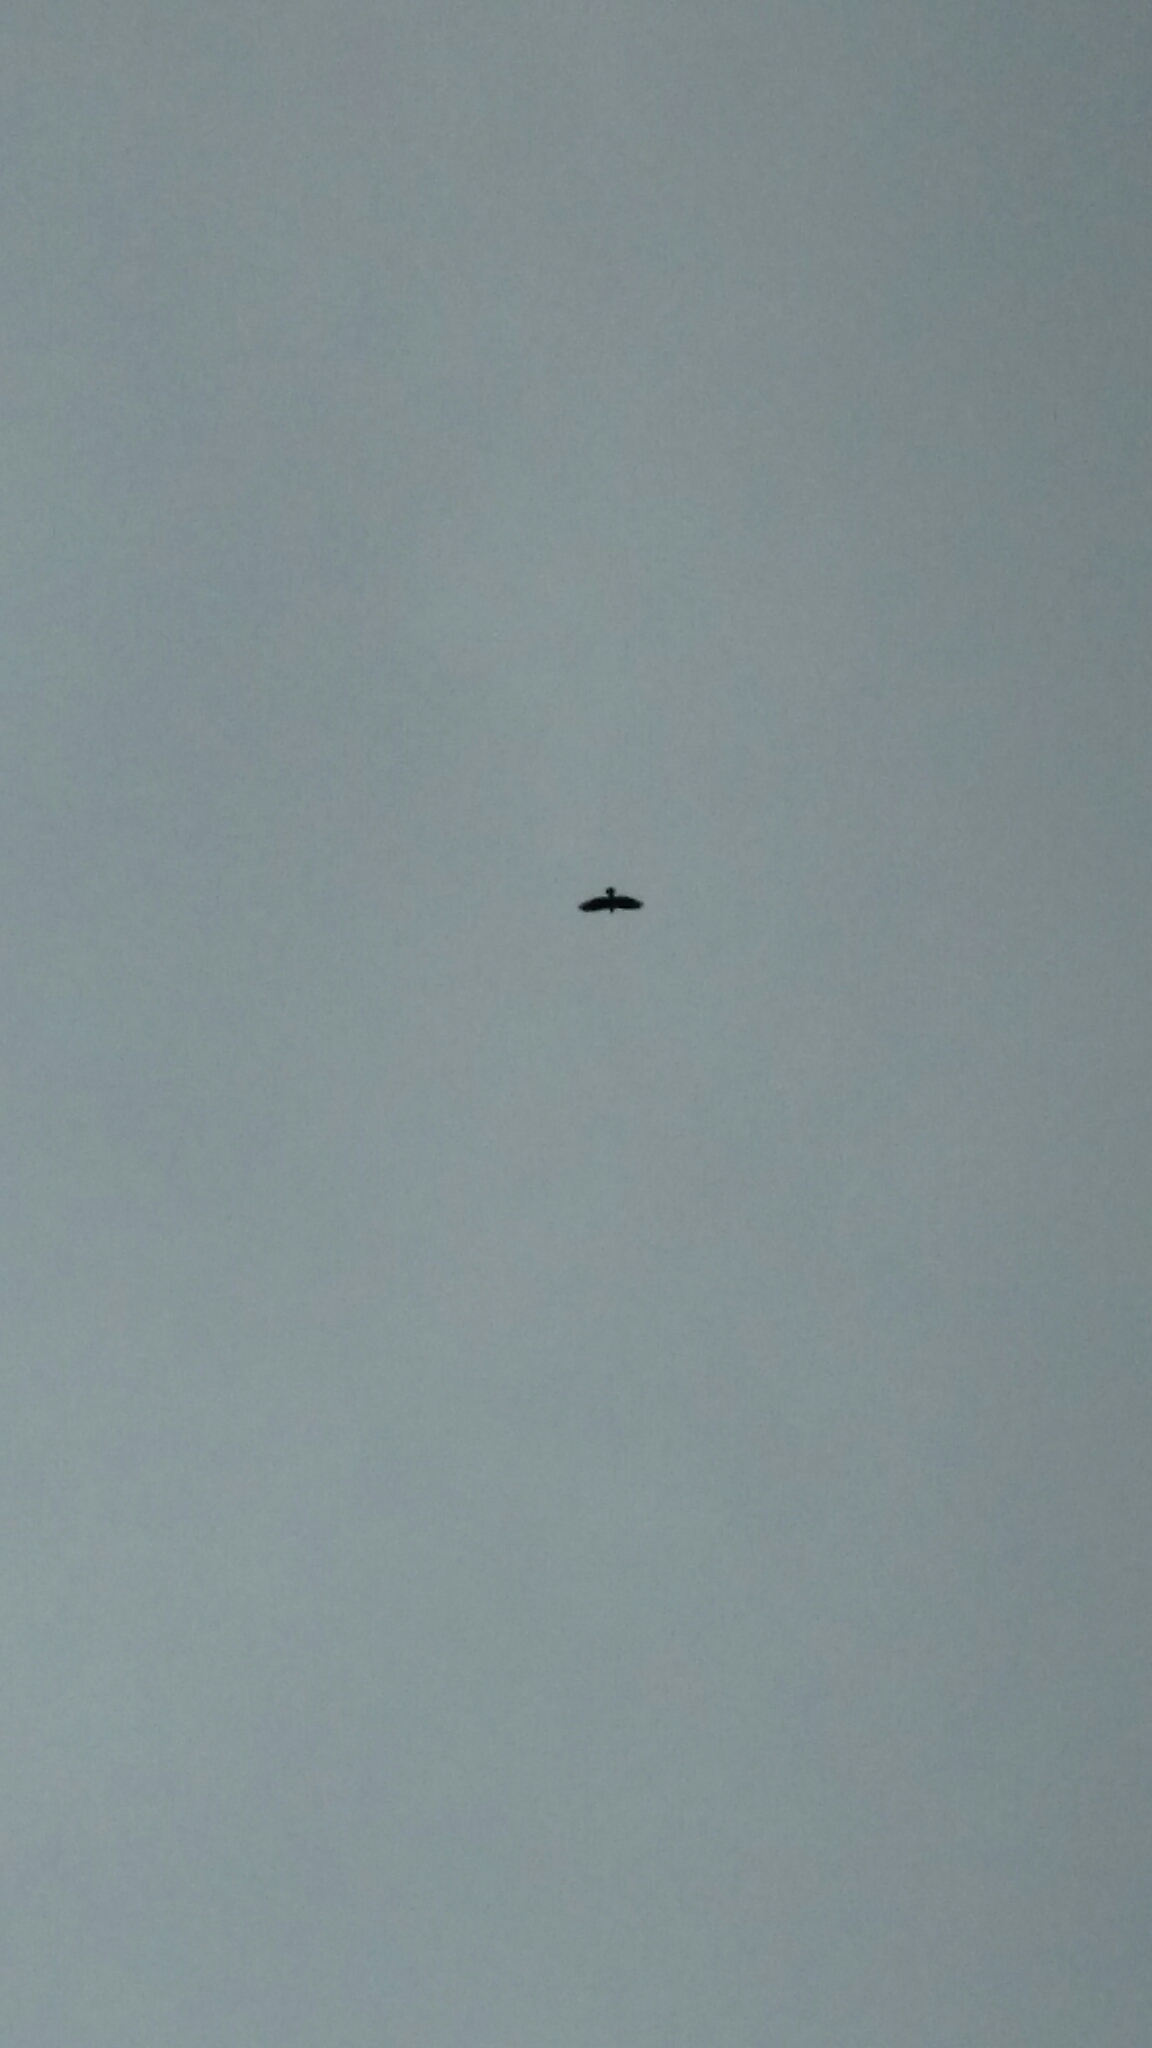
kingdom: Animalia
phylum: Chordata
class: Aves
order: Accipitriformes
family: Accipitridae
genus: Buteo
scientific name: Buteo
